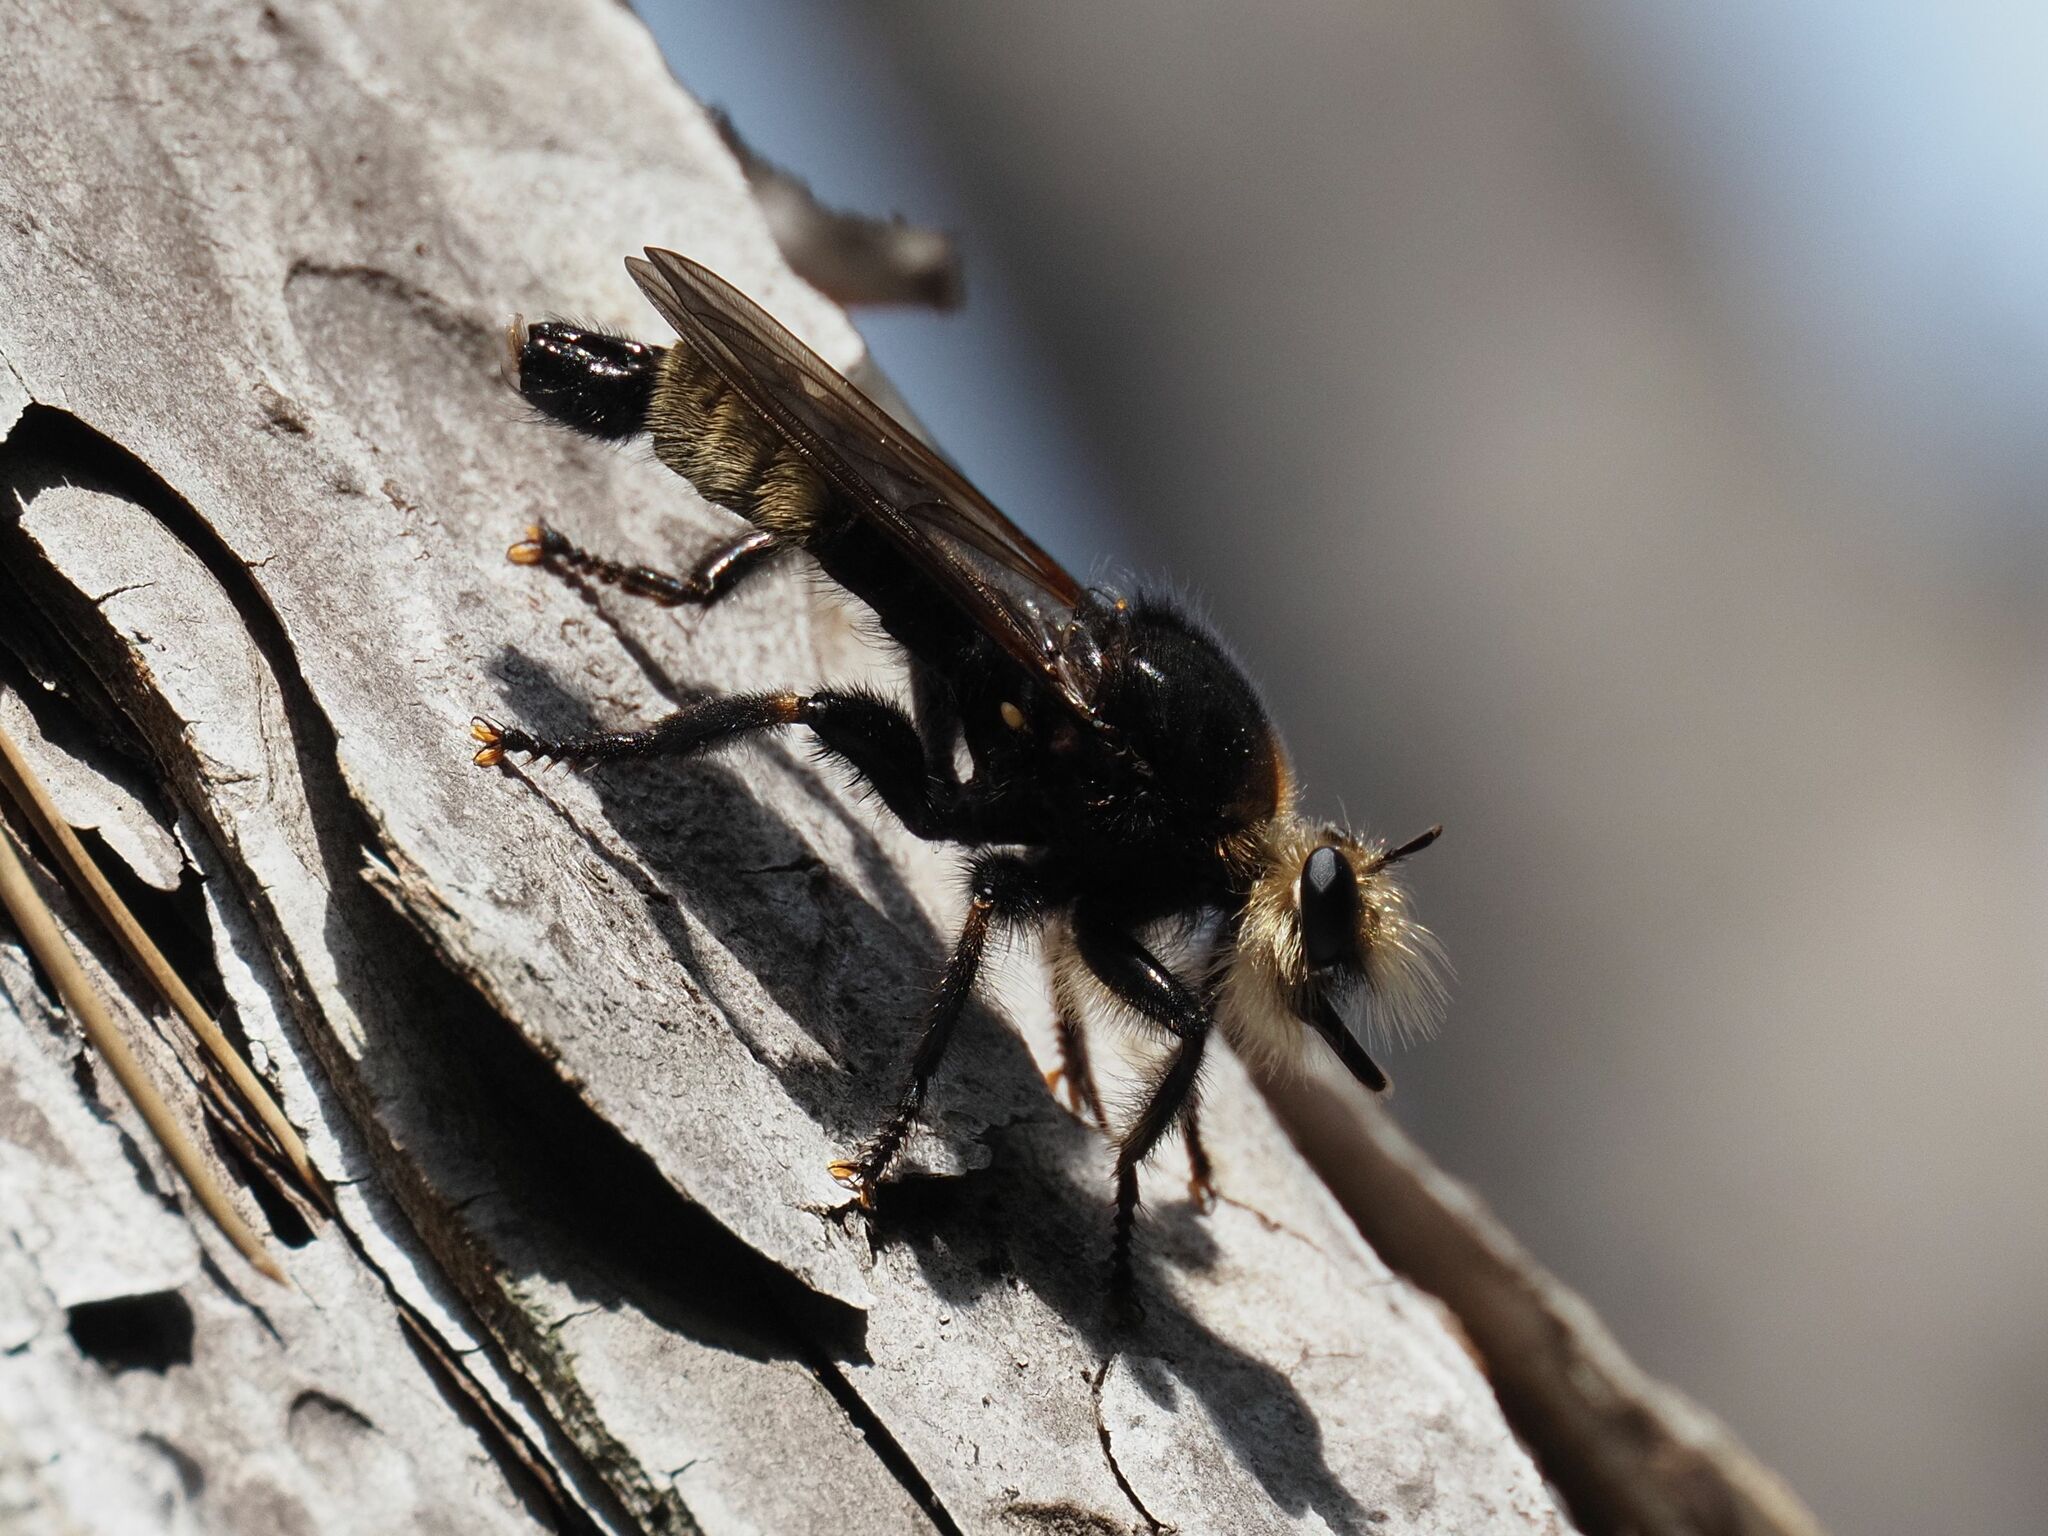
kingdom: Animalia
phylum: Arthropoda
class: Insecta
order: Diptera
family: Asilidae
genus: Laphria
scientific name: Laphria gibbosa
